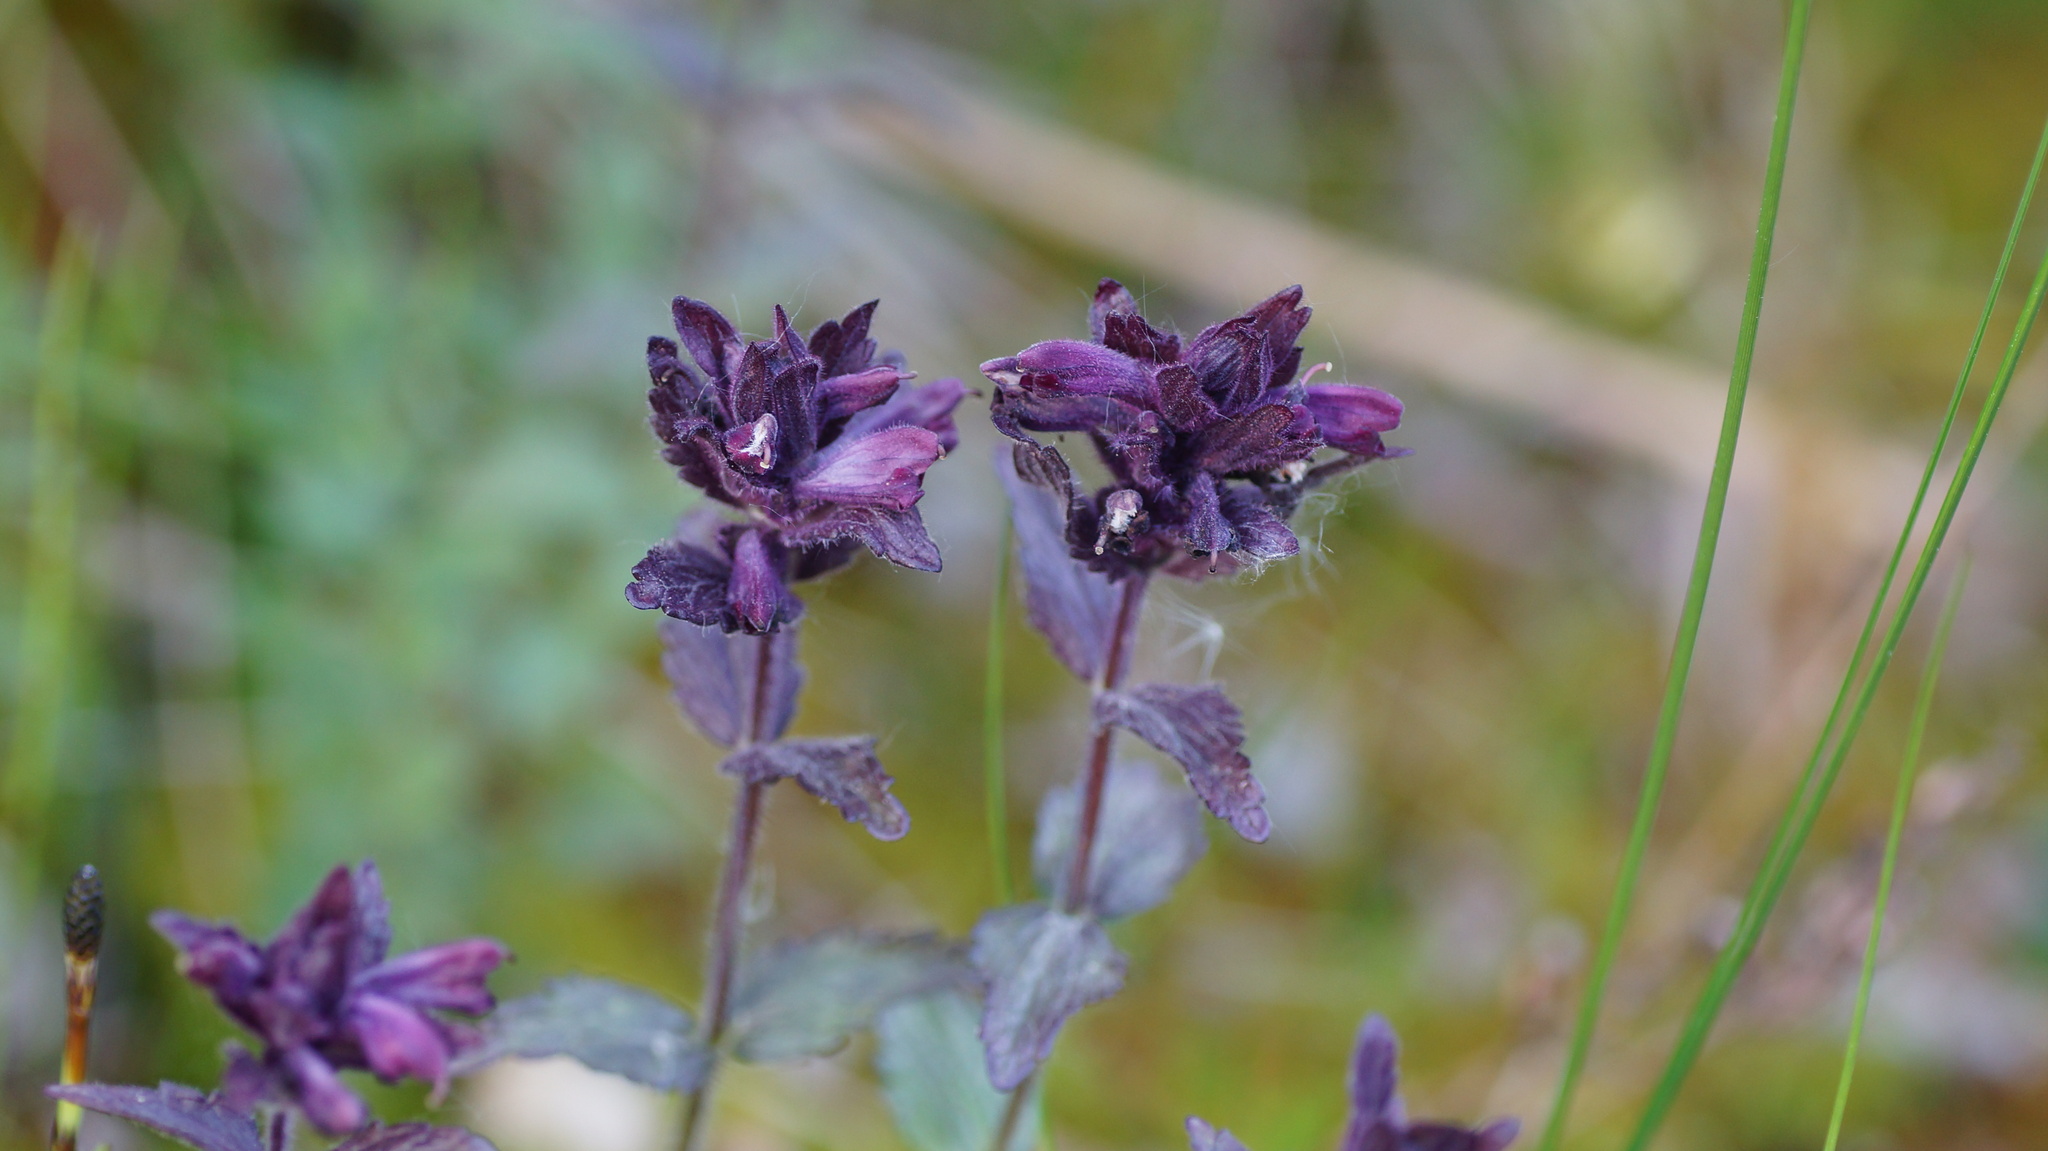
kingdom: Plantae
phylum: Tracheophyta
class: Magnoliopsida
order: Lamiales
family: Orobanchaceae
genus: Bartsia
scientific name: Bartsia alpina
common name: Alpine bartsia
